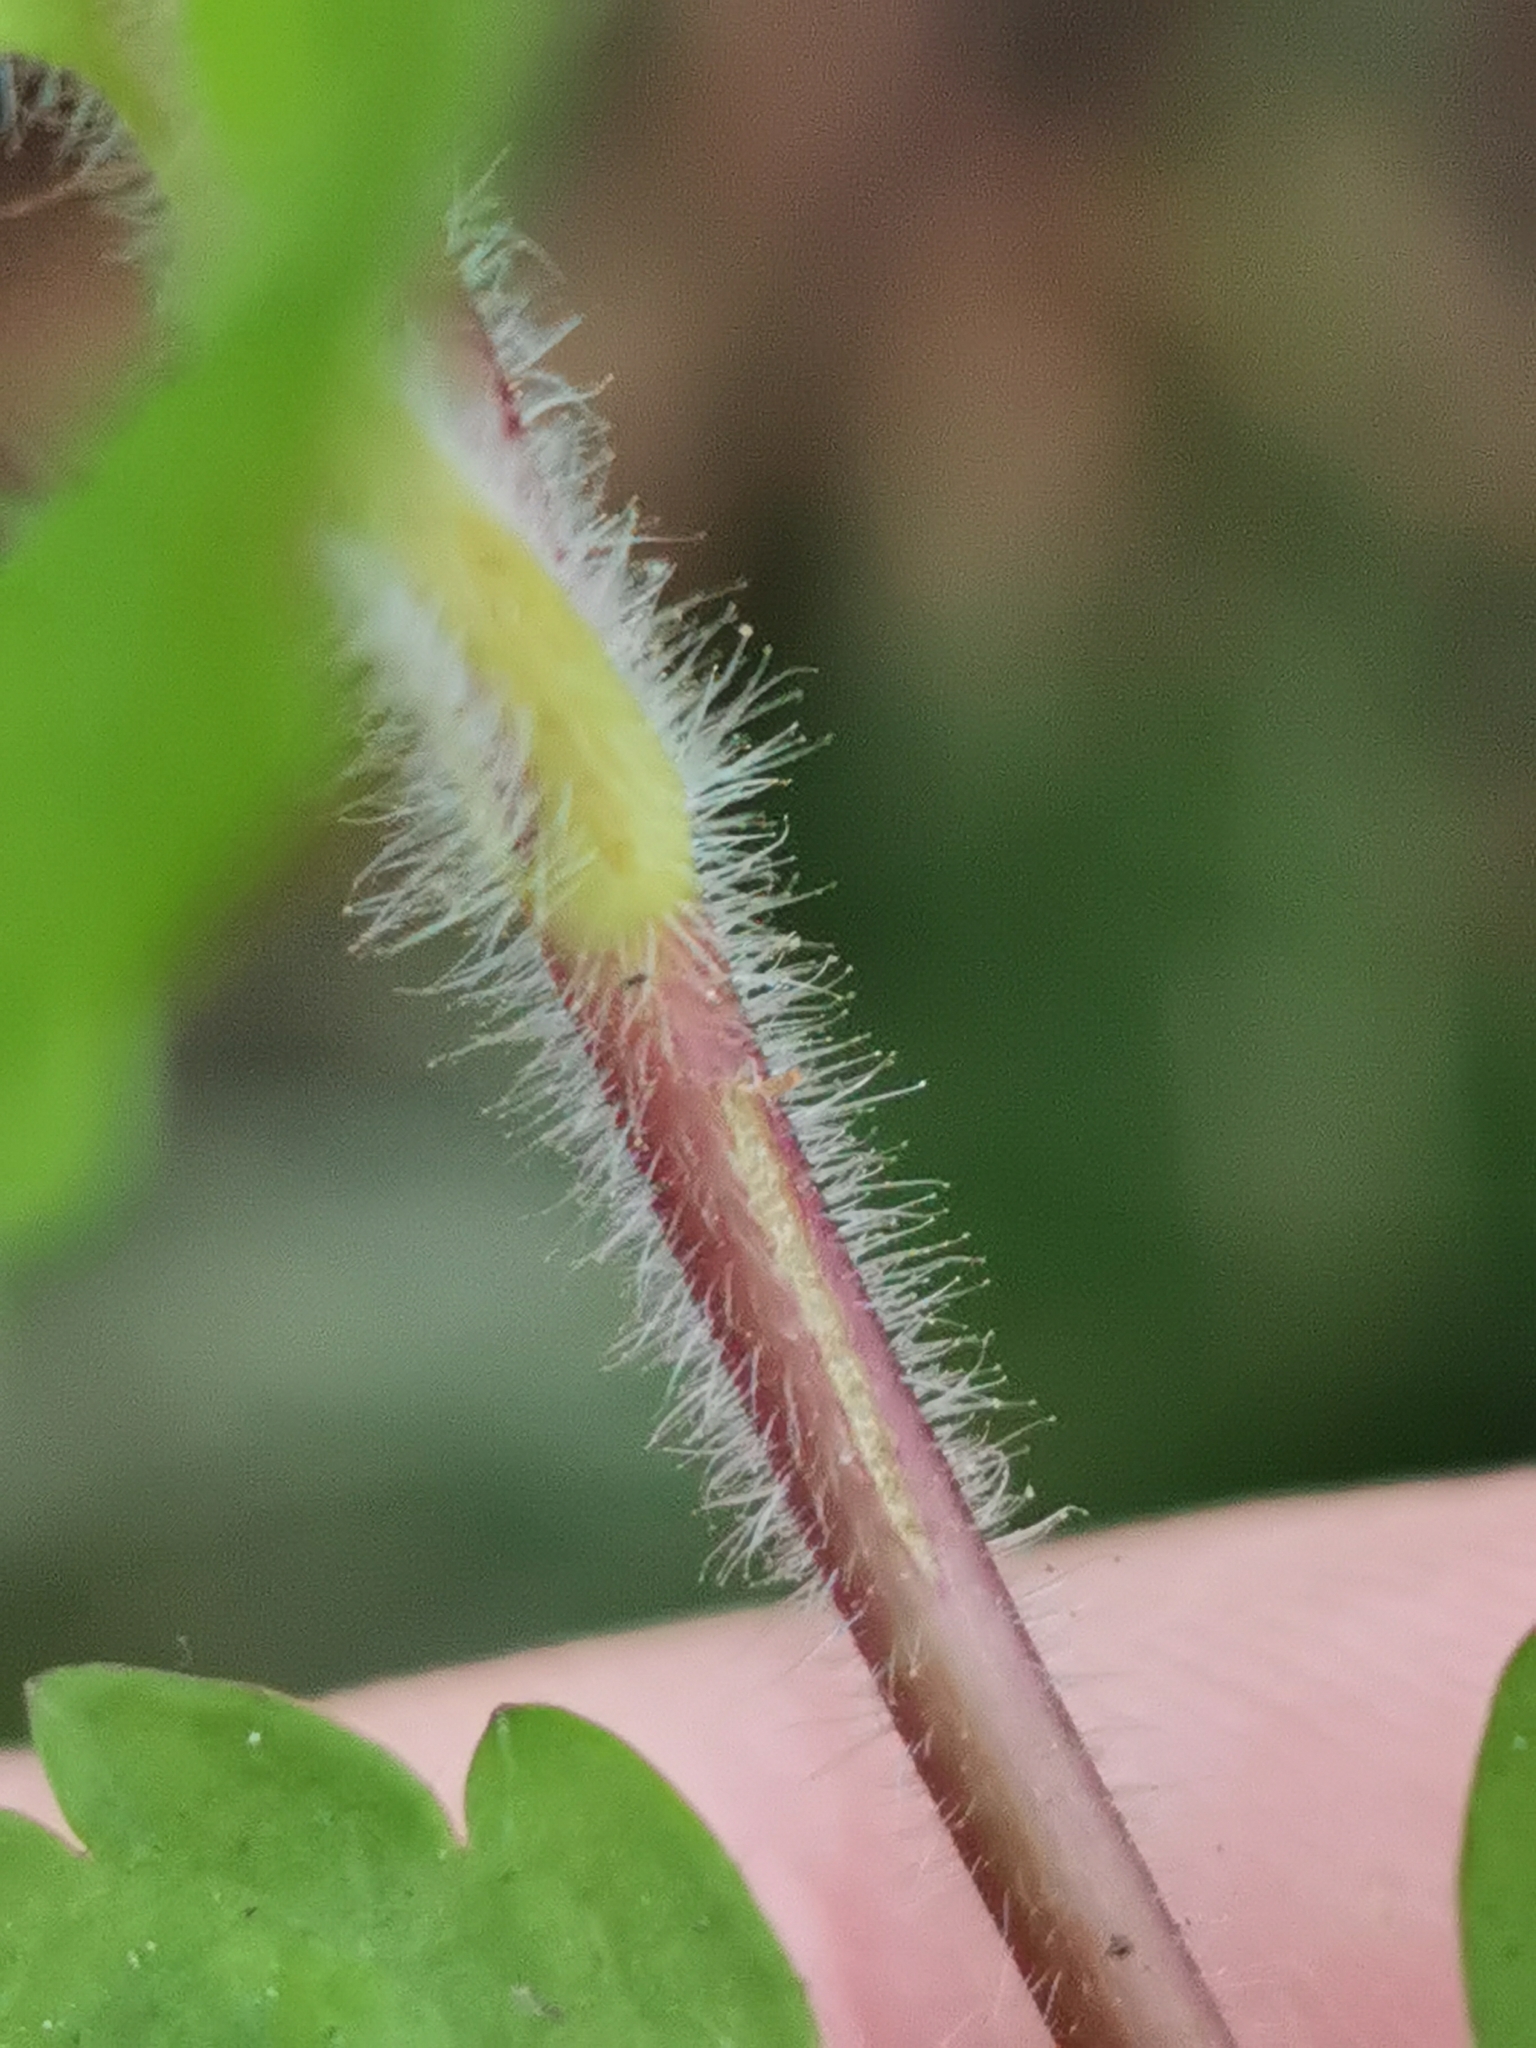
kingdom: Plantae
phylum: Tracheophyta
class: Magnoliopsida
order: Lamiales
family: Plantaginaceae
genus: Veronica
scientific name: Veronica montana
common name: Wood speedwell
